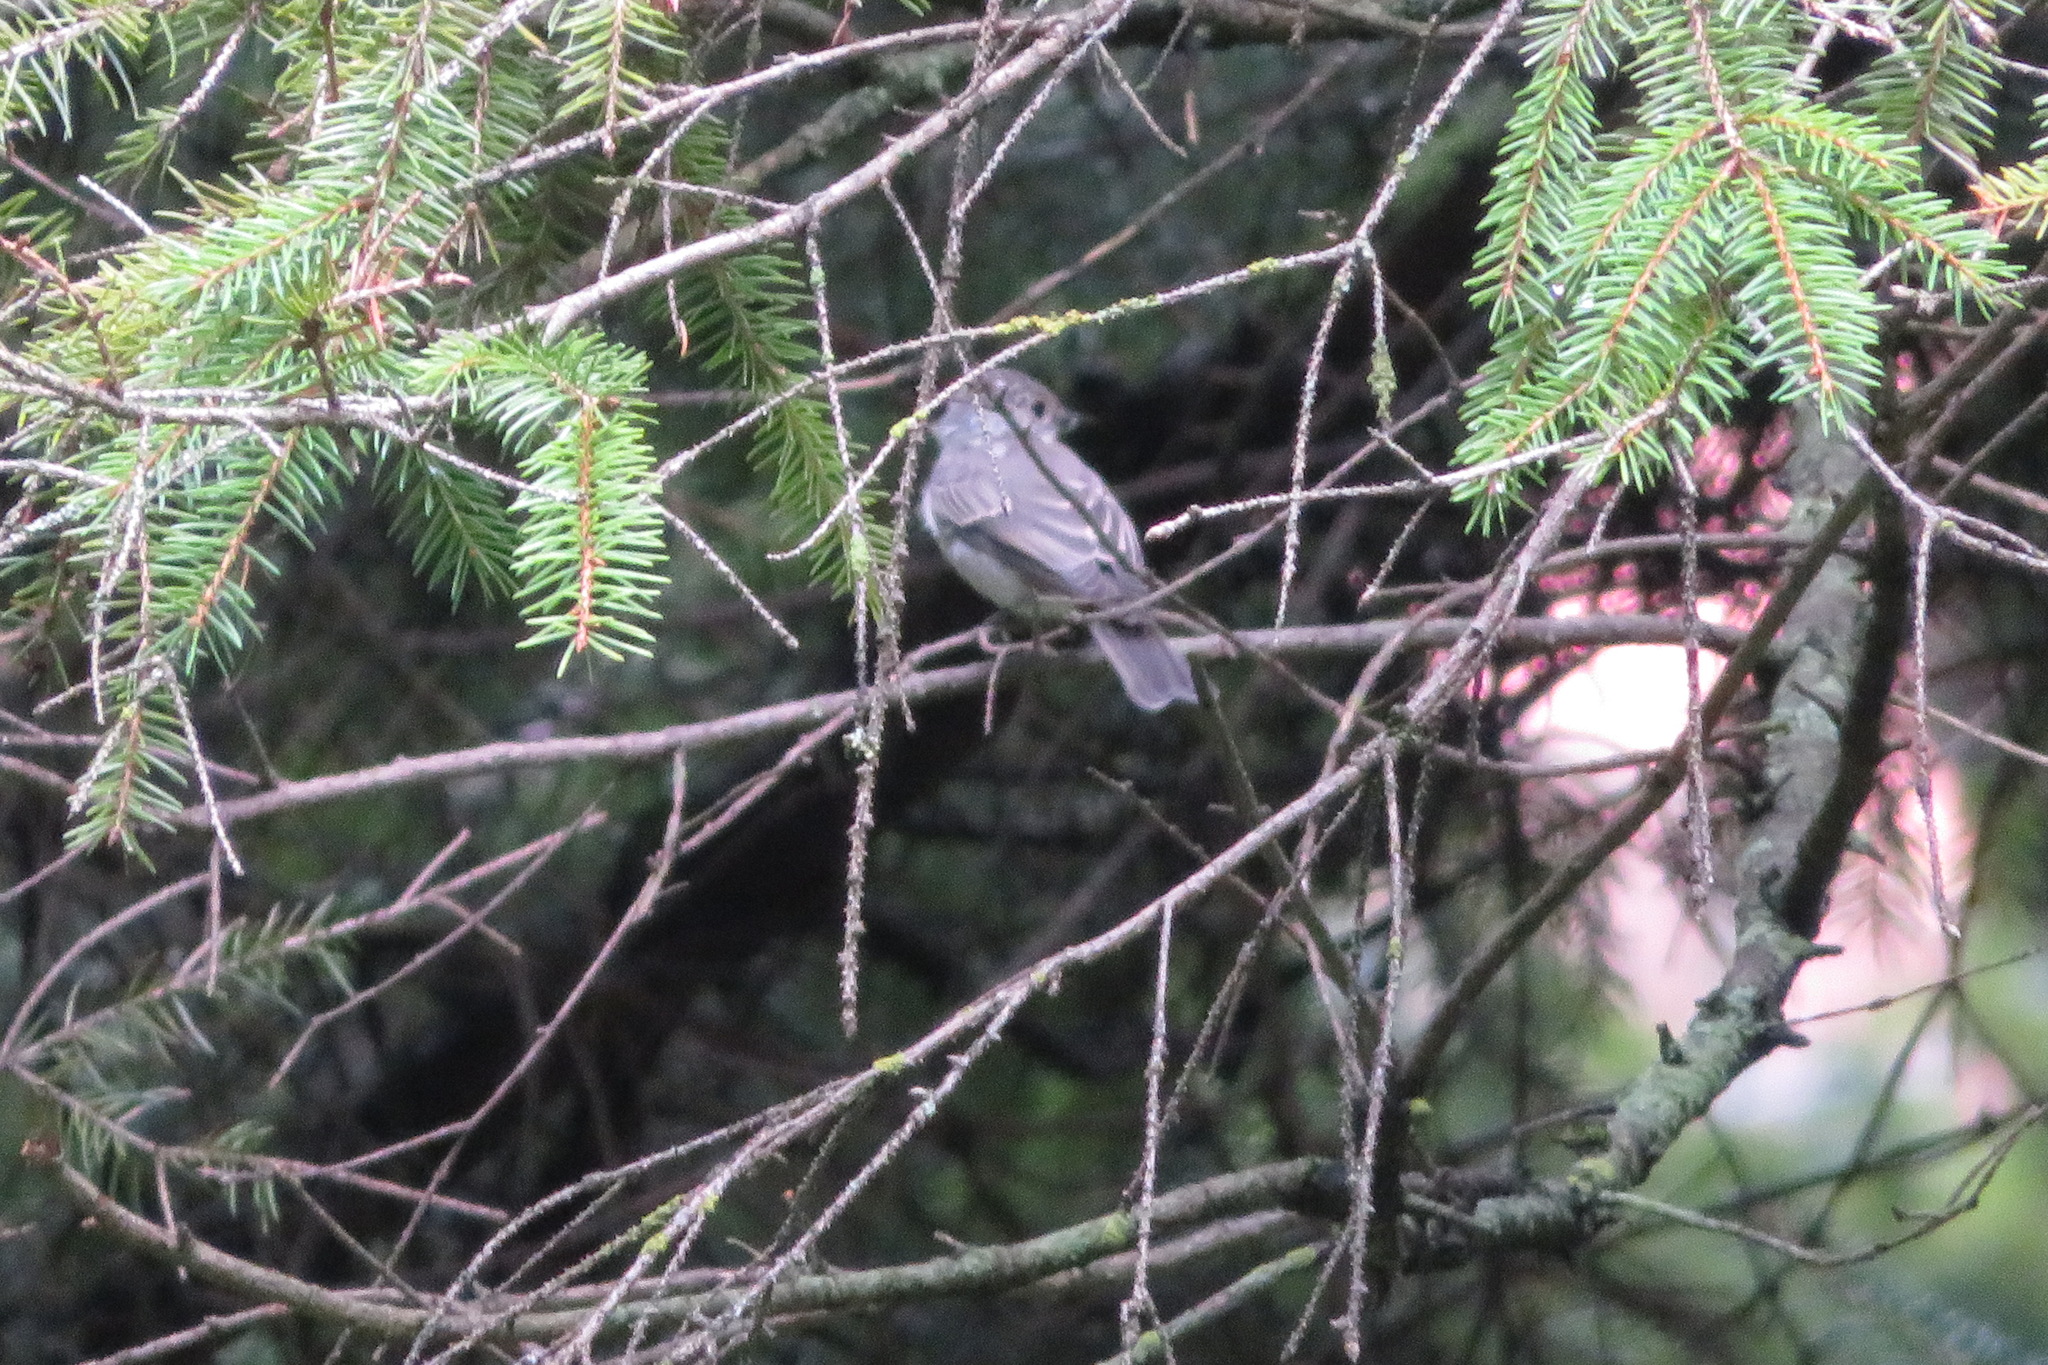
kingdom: Animalia
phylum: Chordata
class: Aves
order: Passeriformes
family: Muscicapidae
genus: Muscicapa
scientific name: Muscicapa striata
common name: Spotted flycatcher
